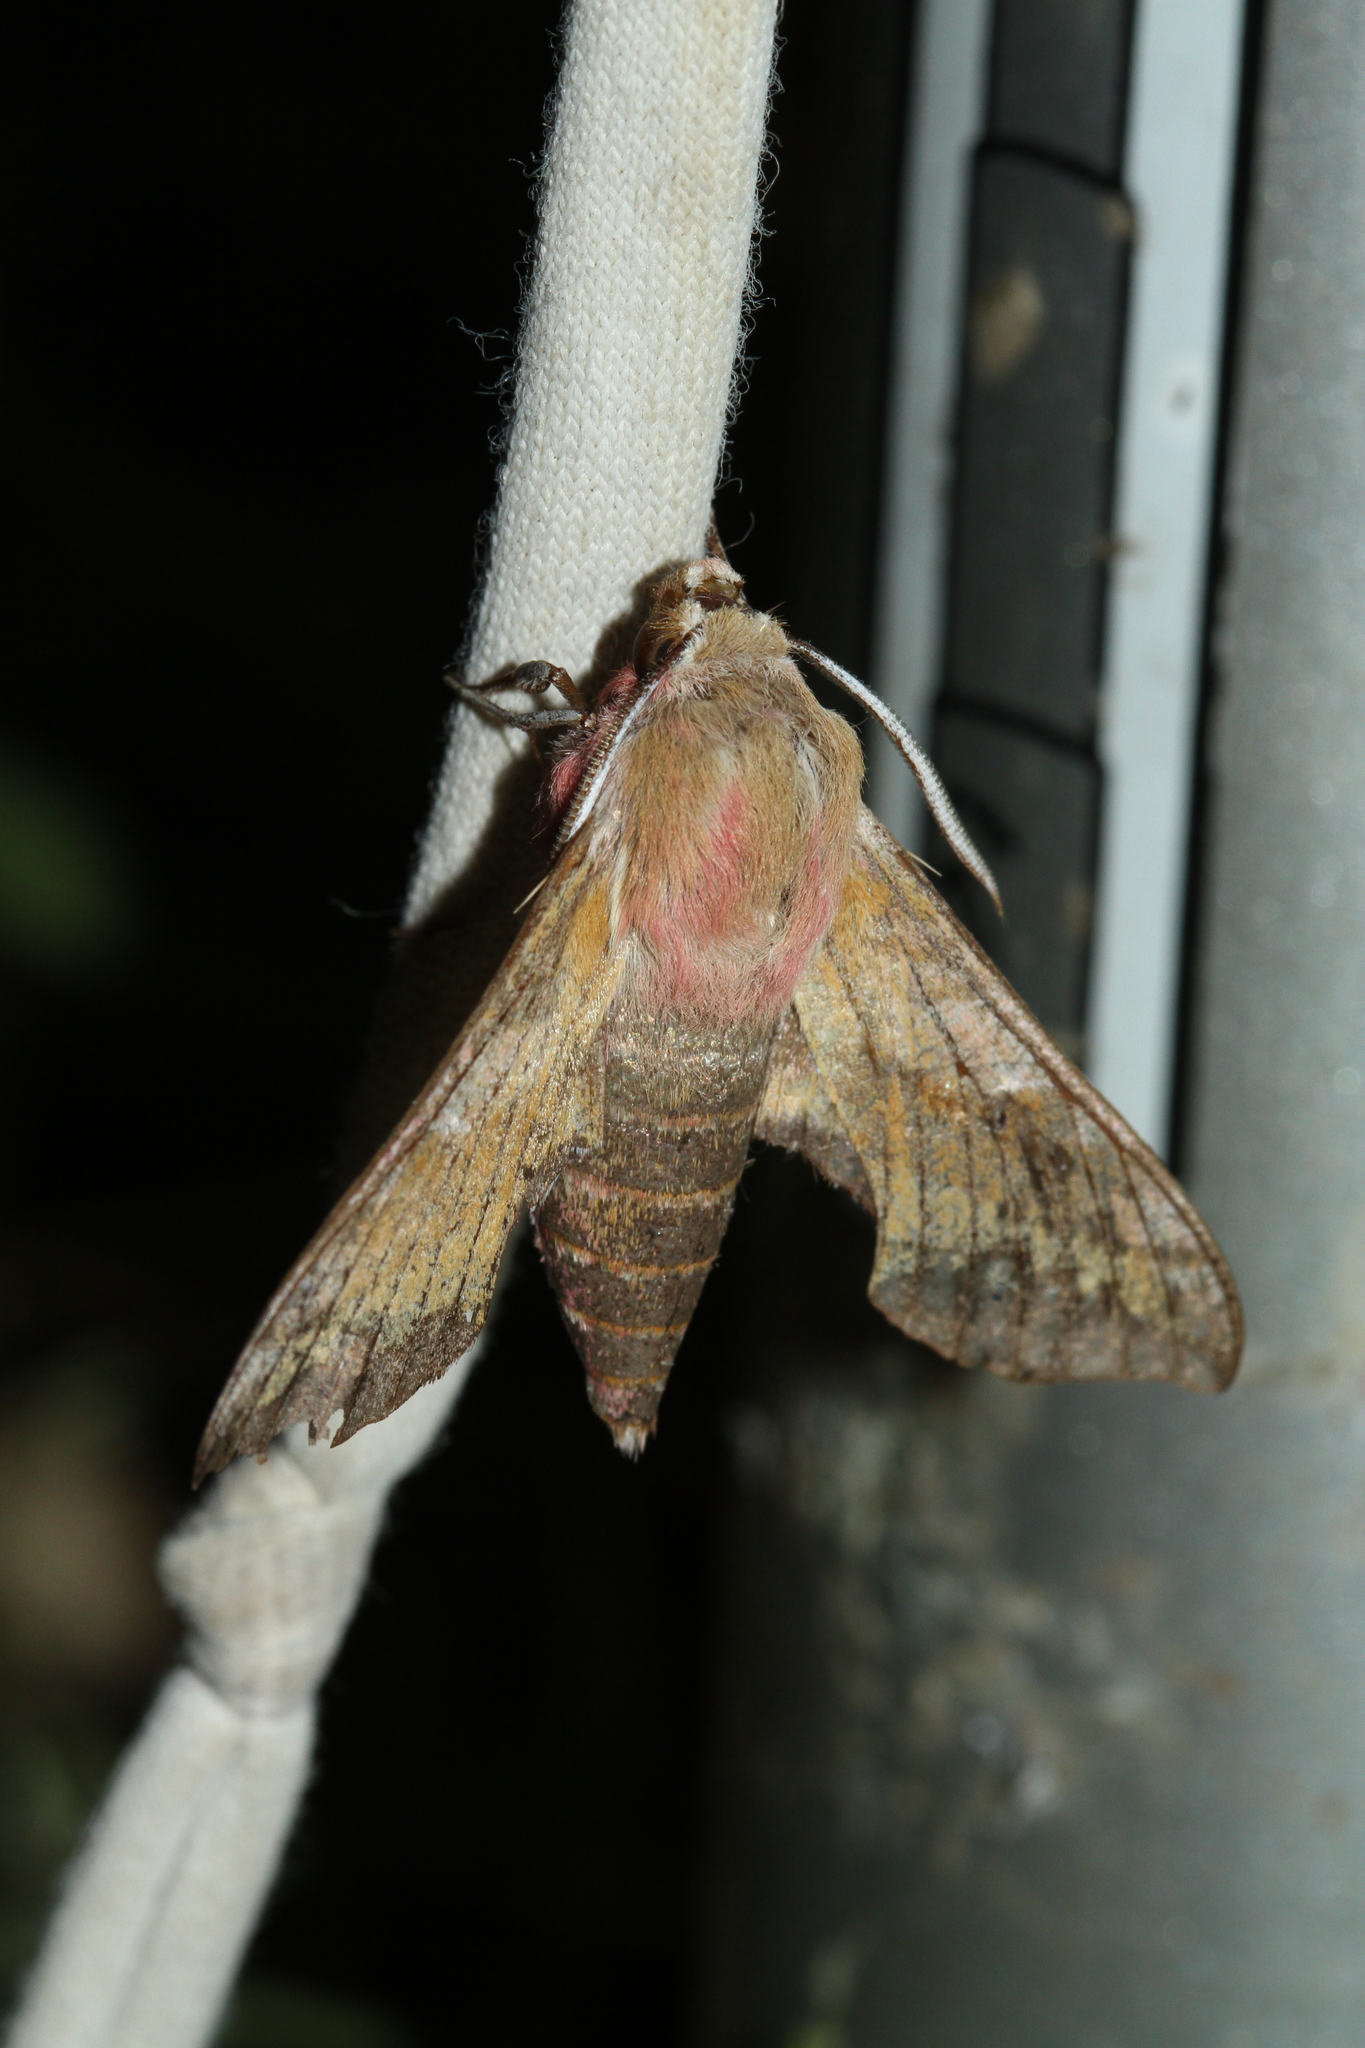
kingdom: Animalia
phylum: Arthropoda
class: Insecta
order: Lepidoptera
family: Sphingidae
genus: Deilephila
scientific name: Deilephila porcellus
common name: Small elephant hawk-moth
